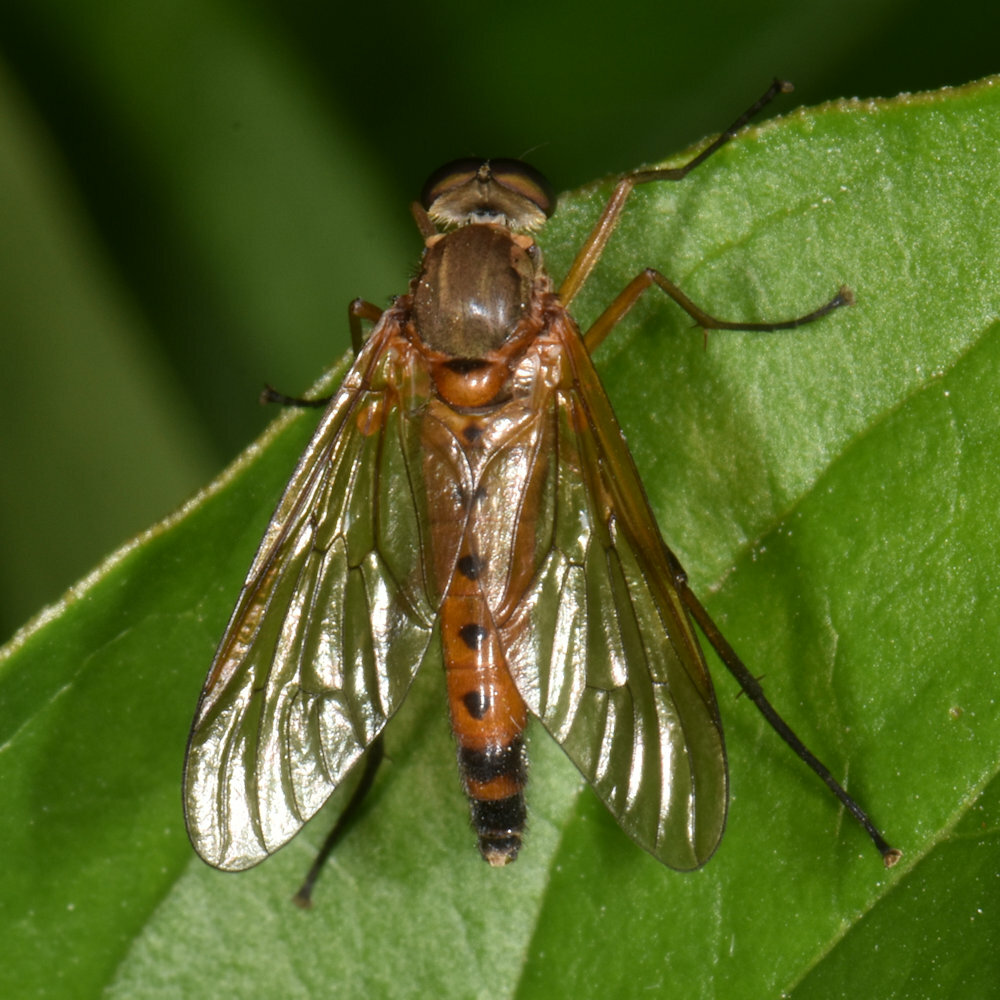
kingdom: Animalia
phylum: Arthropoda
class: Insecta
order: Diptera
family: Rhagionidae
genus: Rhagio
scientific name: Rhagio tringaria
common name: Marsh snipefly
